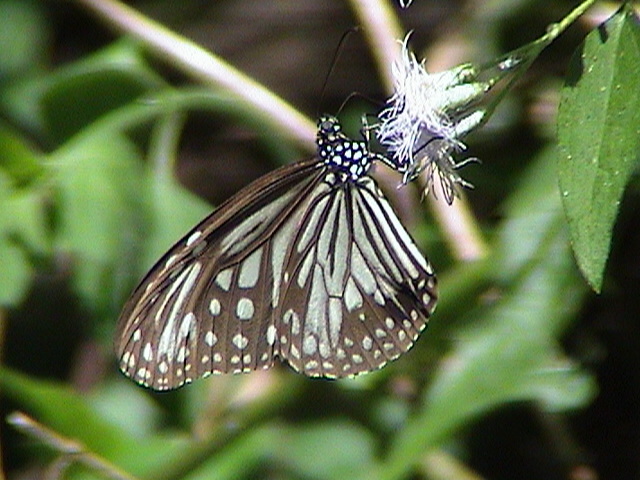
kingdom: Animalia
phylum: Arthropoda
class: Insecta
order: Lepidoptera
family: Nymphalidae
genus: Parantica
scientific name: Parantica aglea
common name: Glassy tiger
